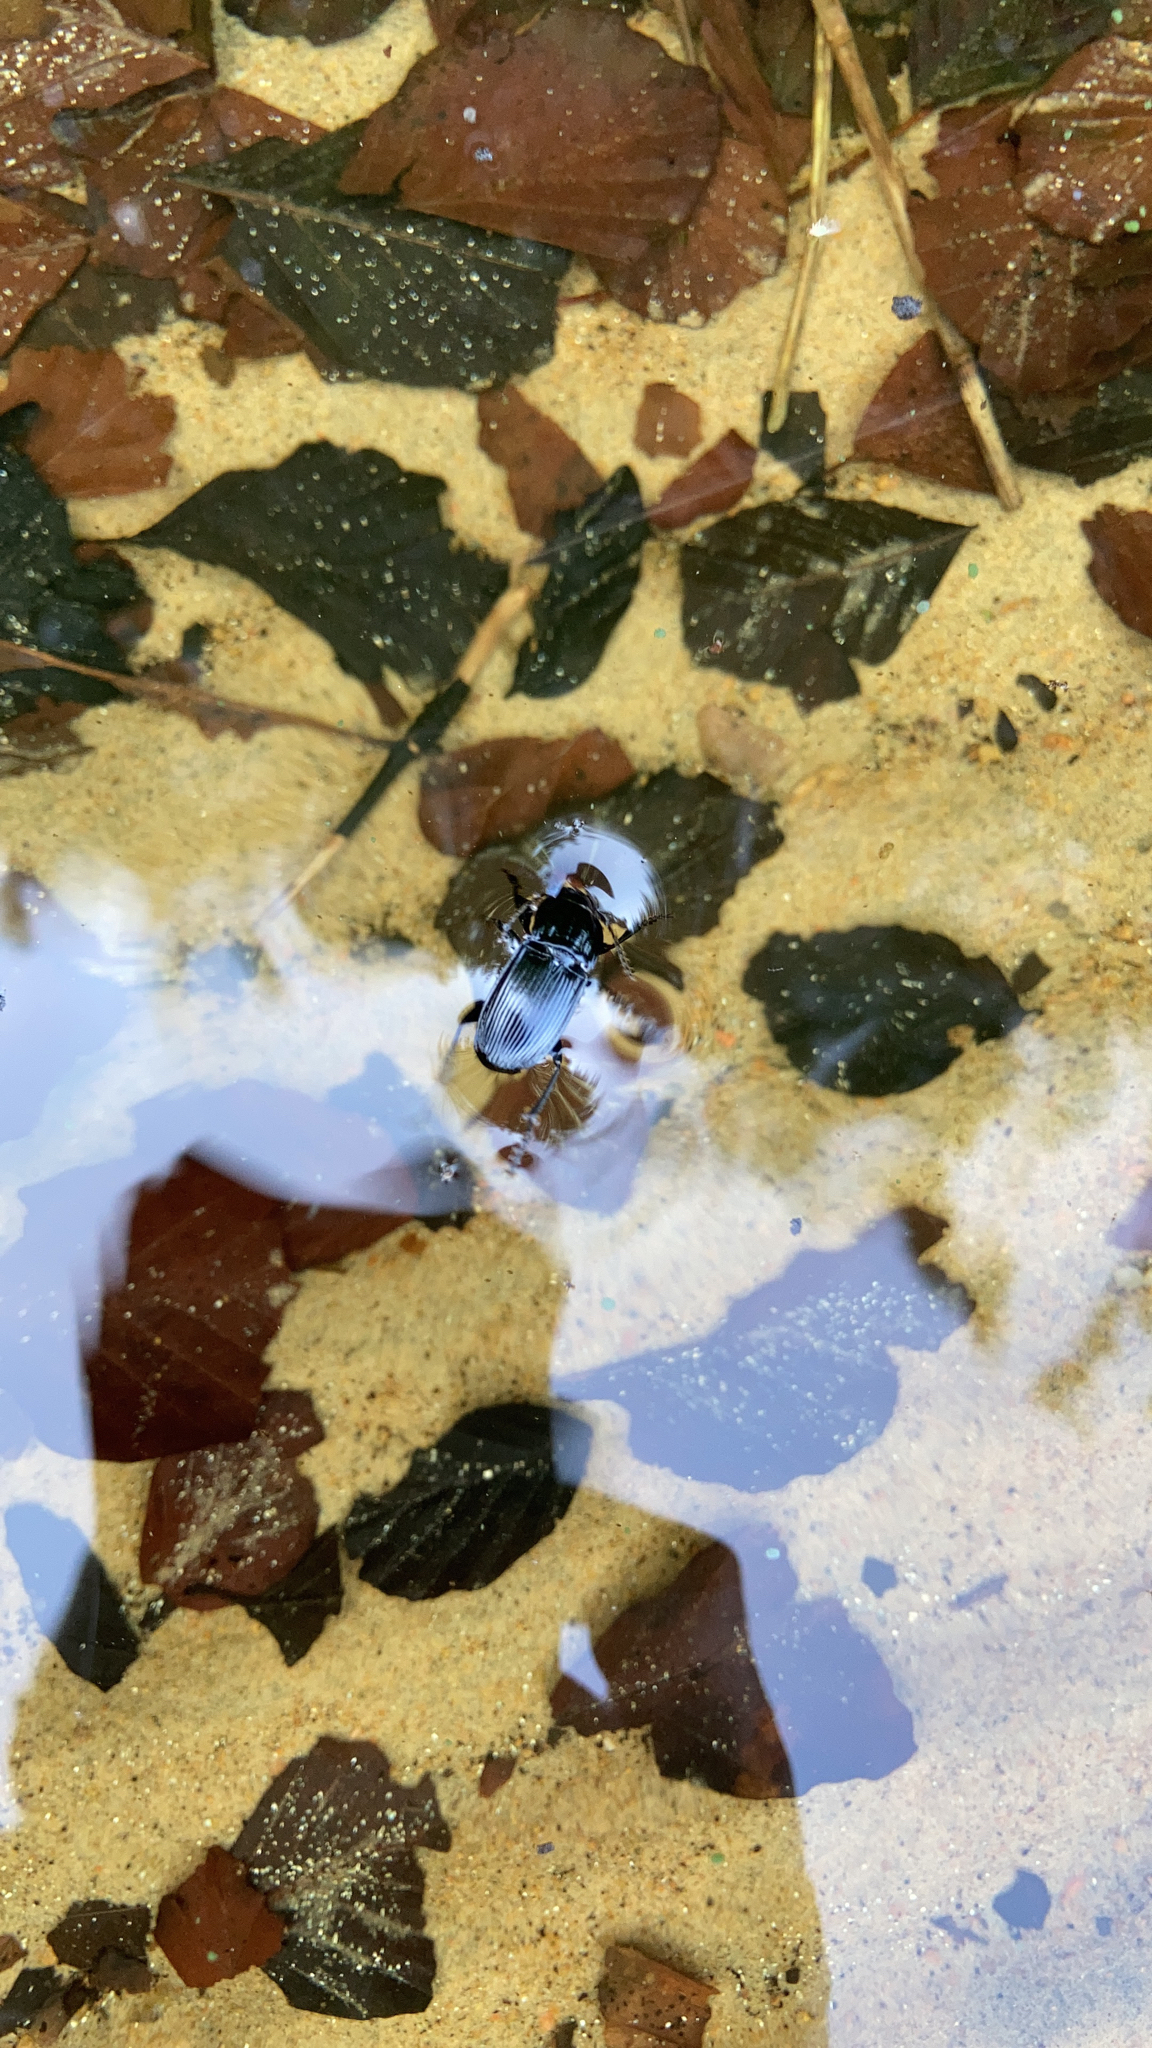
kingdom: Animalia
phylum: Arthropoda
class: Insecta
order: Coleoptera
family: Carabidae
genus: Abax
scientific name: Abax parallelepipedus
